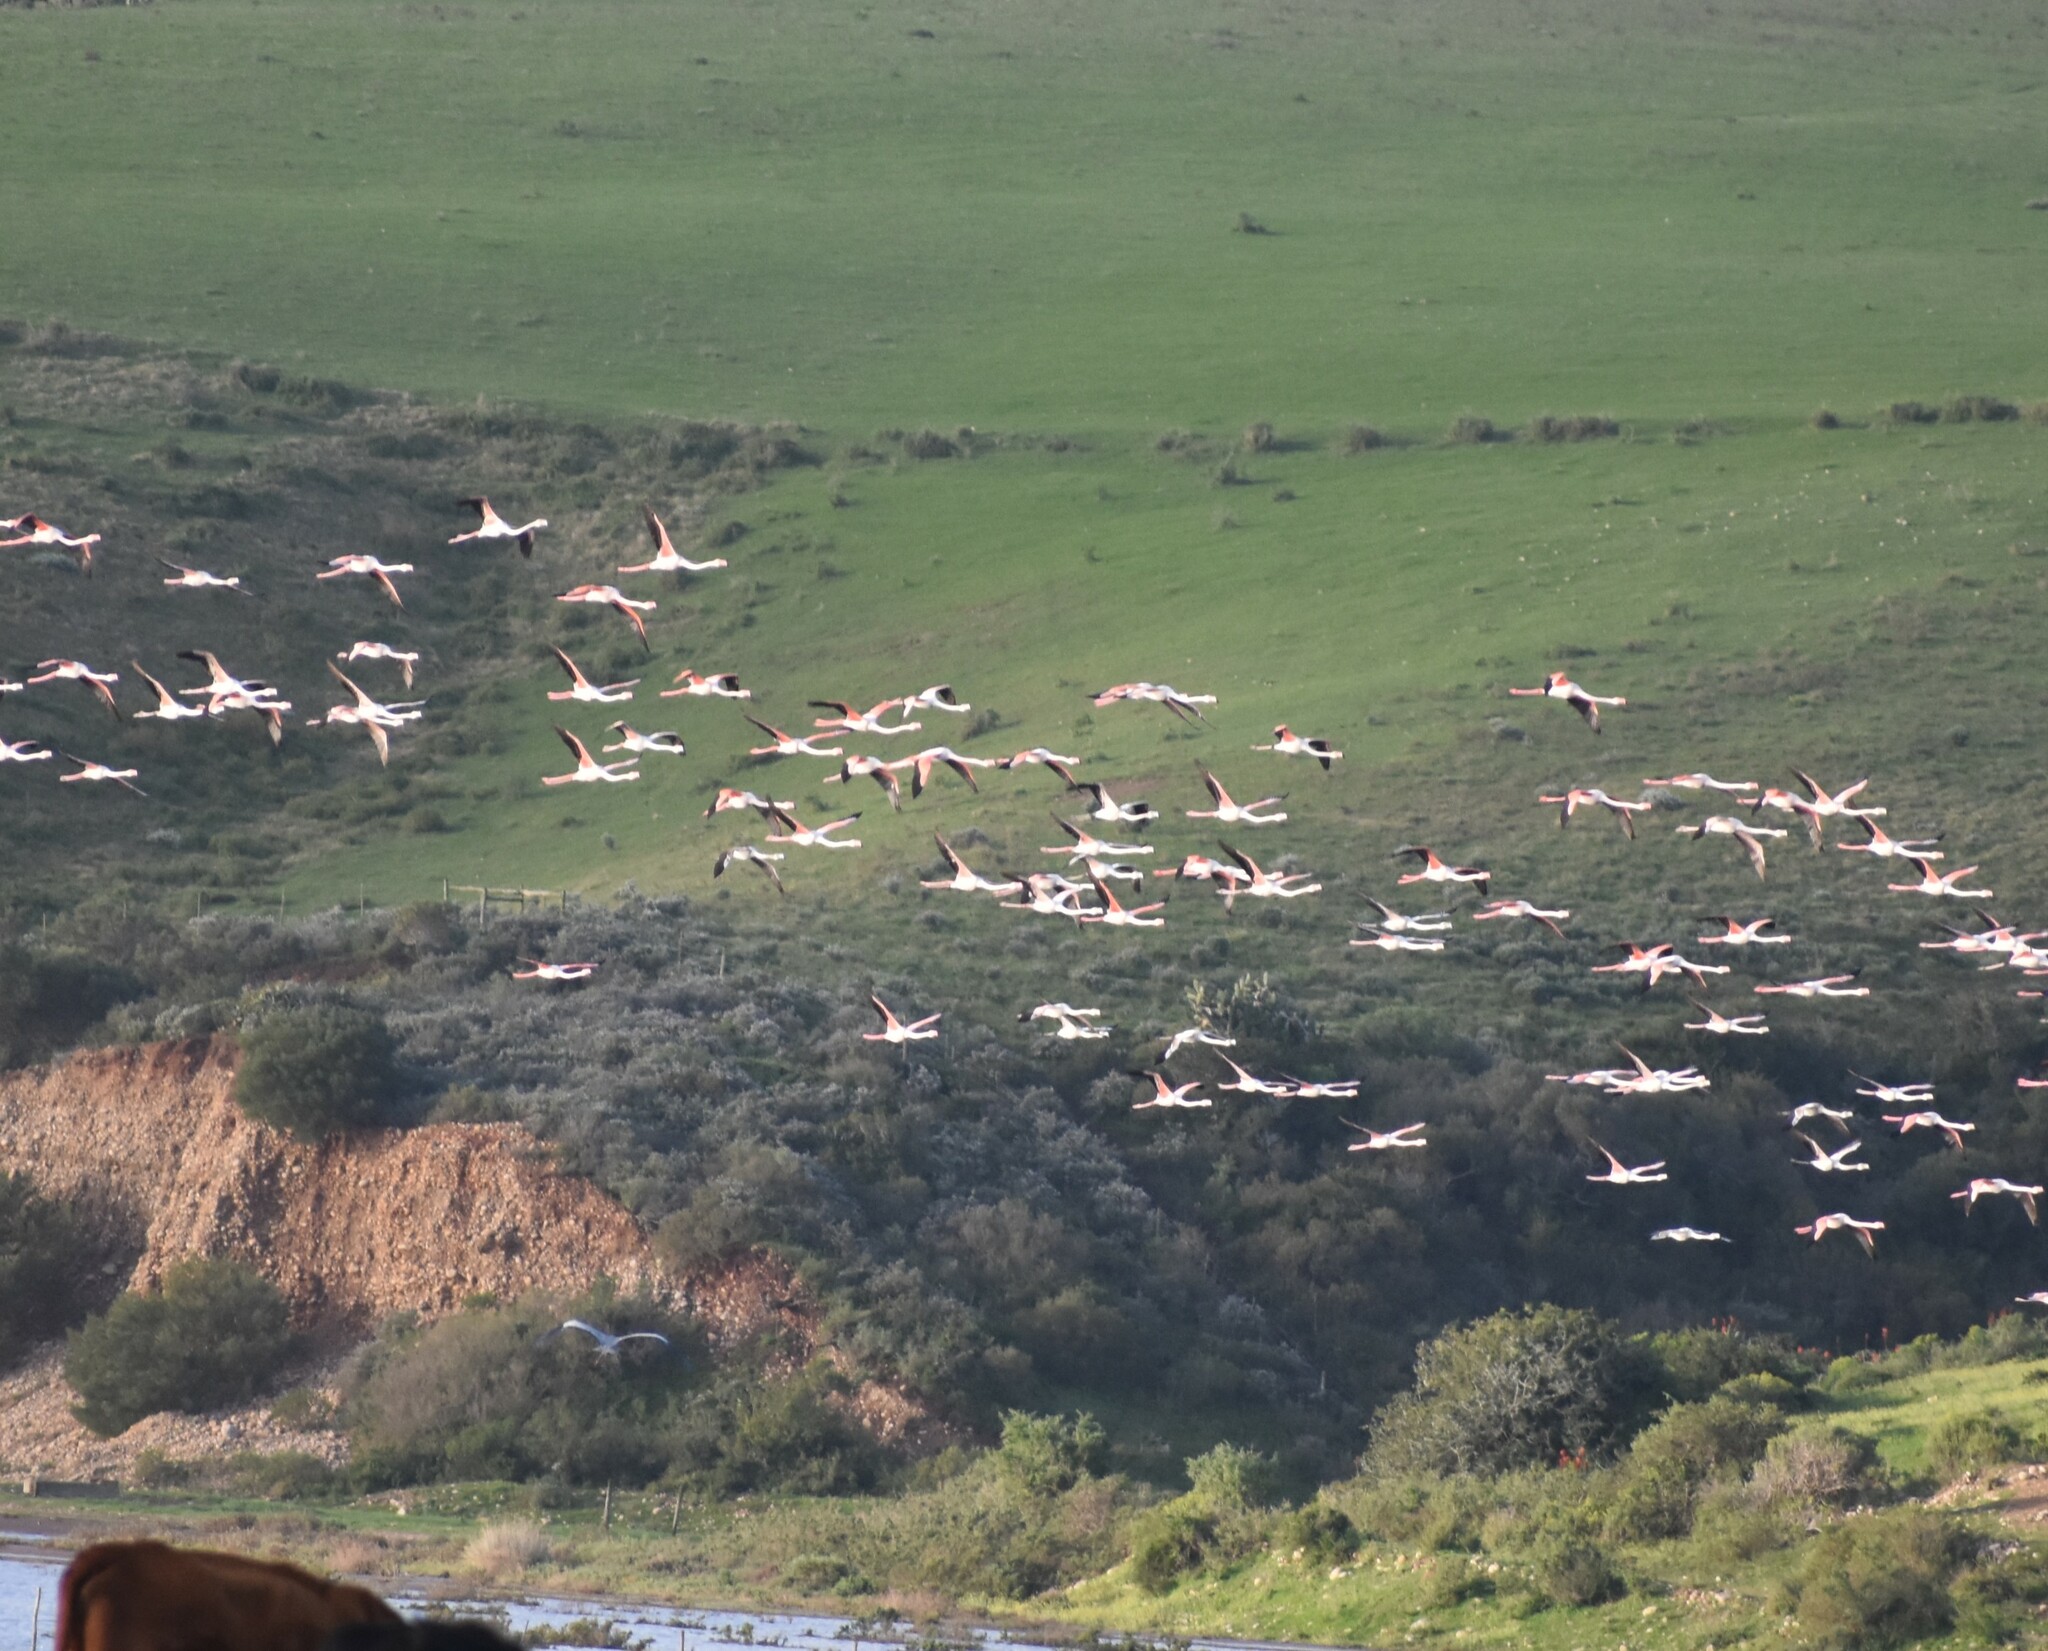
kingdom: Animalia
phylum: Chordata
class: Aves
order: Phoenicopteriformes
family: Phoenicopteridae
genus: Phoenicopterus
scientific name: Phoenicopterus roseus
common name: Greater flamingo
